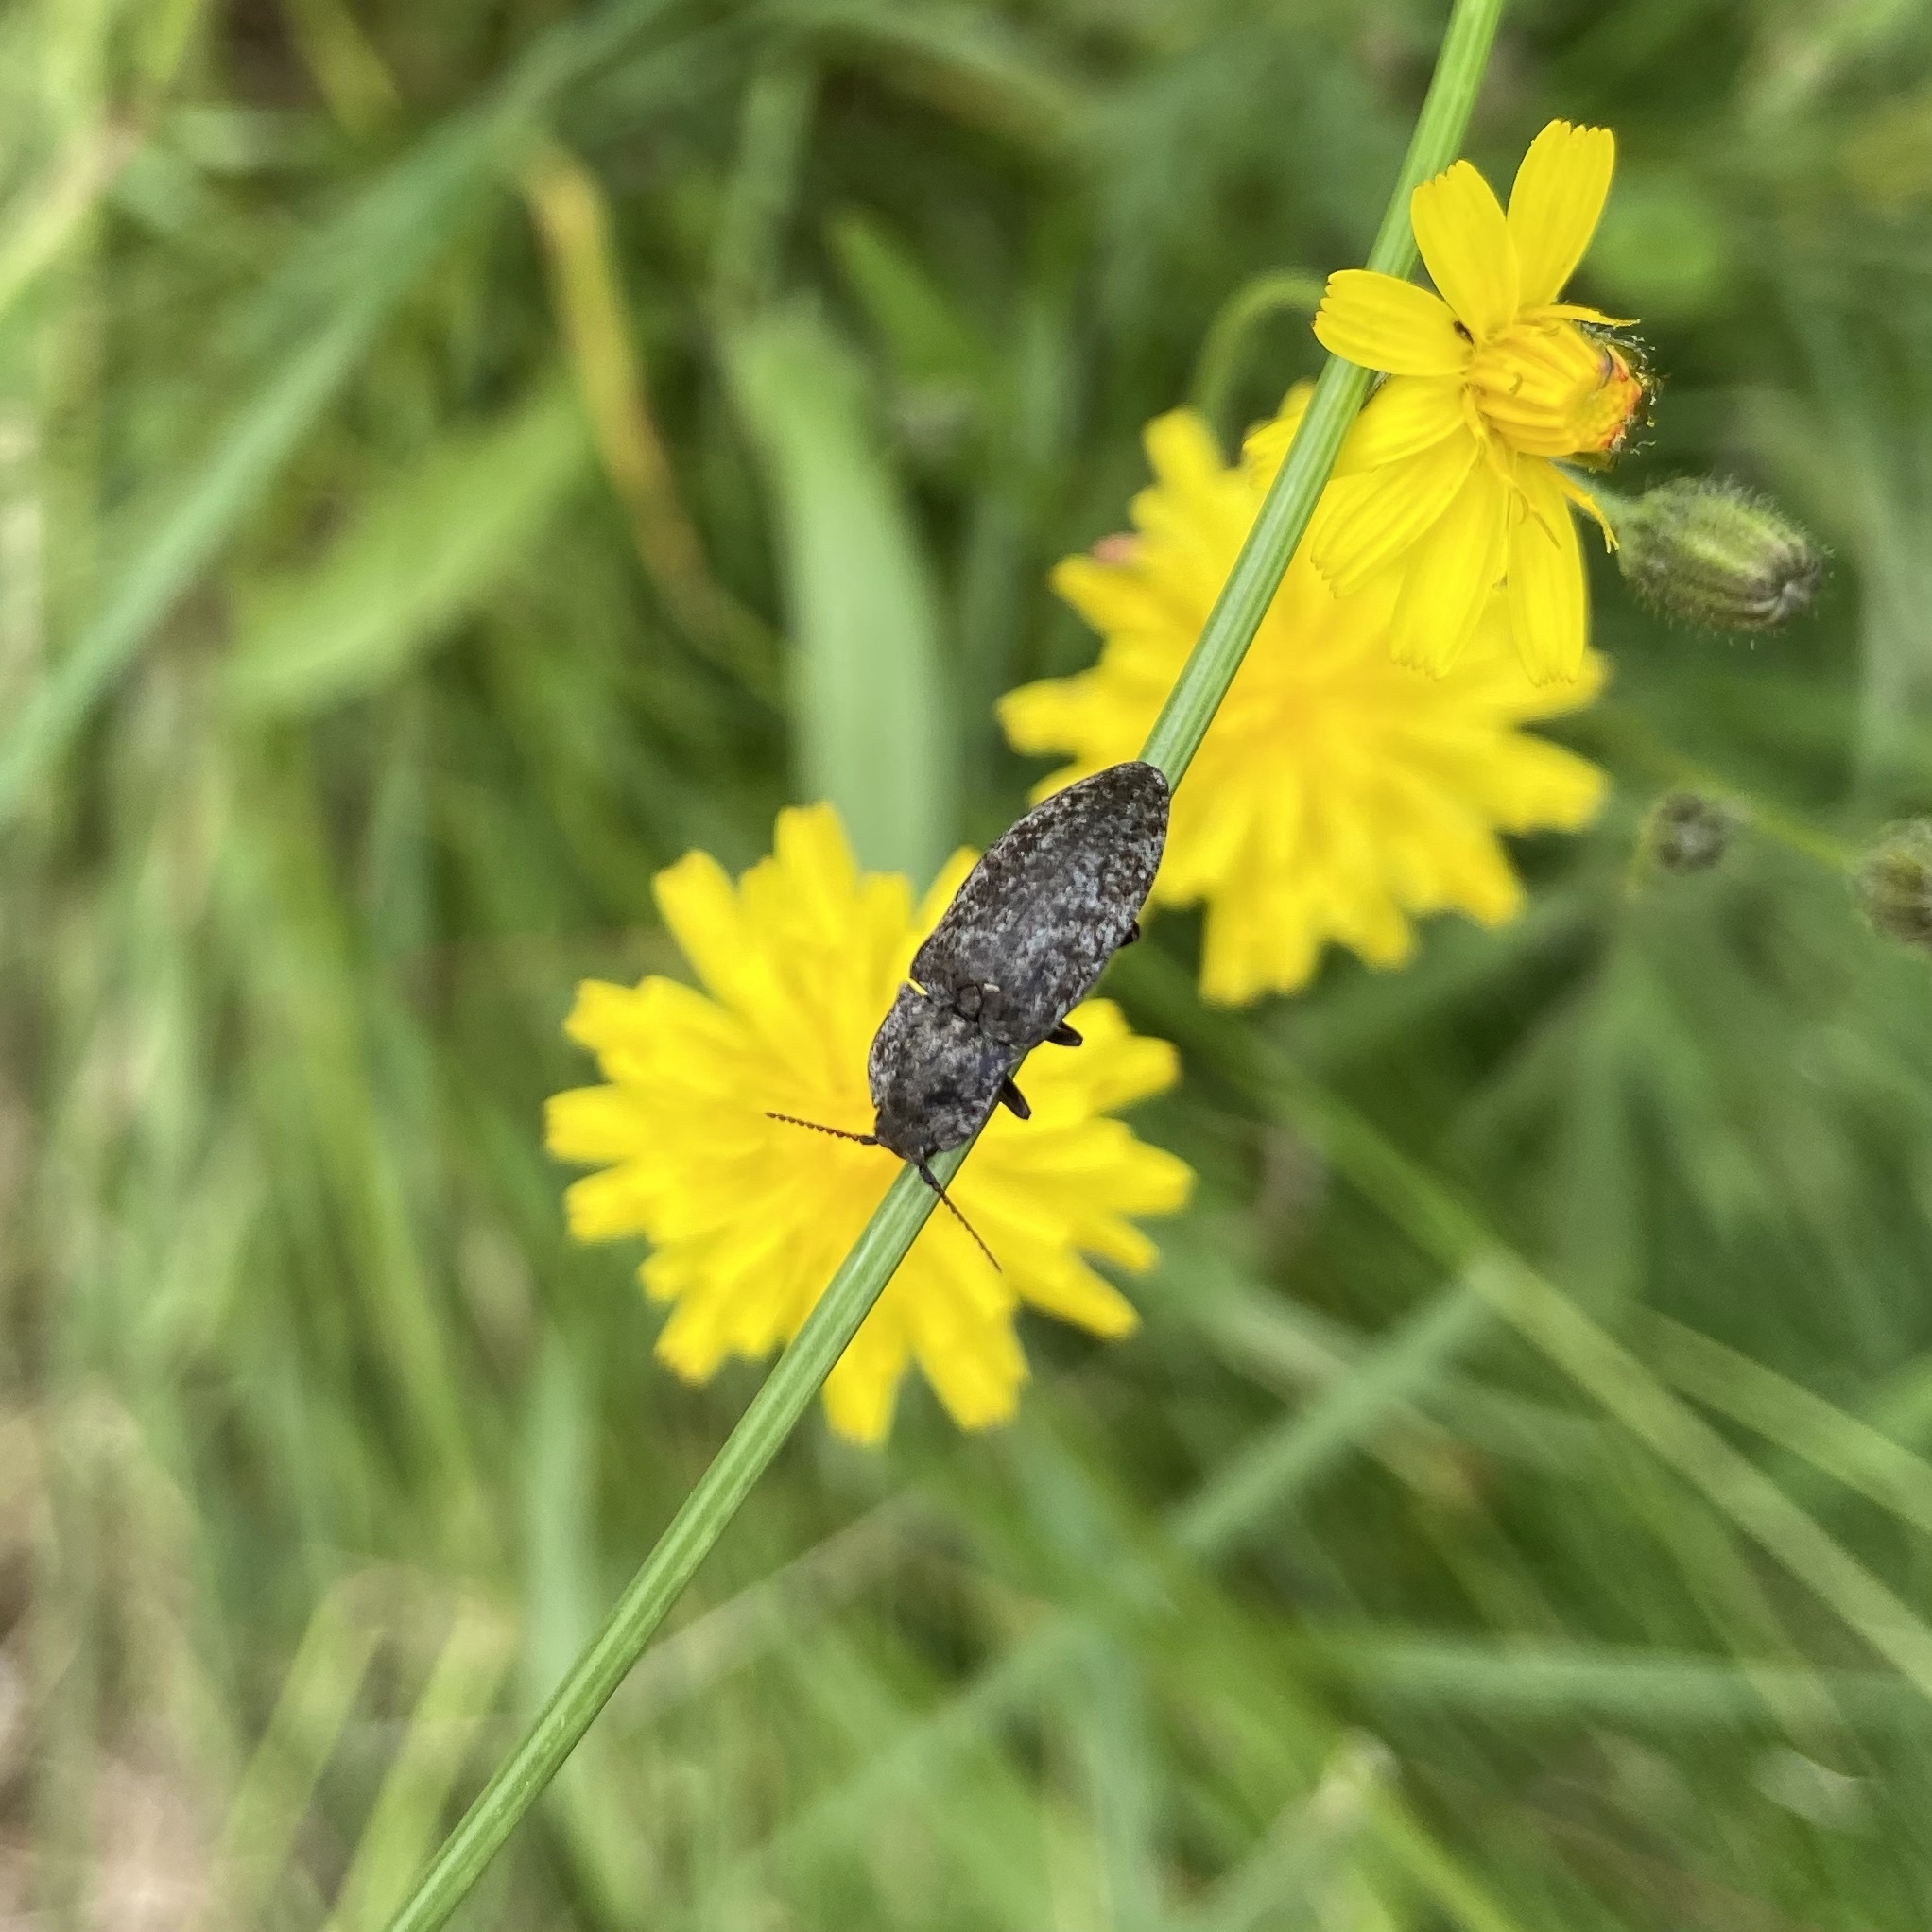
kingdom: Animalia
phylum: Arthropoda
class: Insecta
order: Coleoptera
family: Elateridae
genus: Agrypnus
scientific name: Agrypnus murinus
